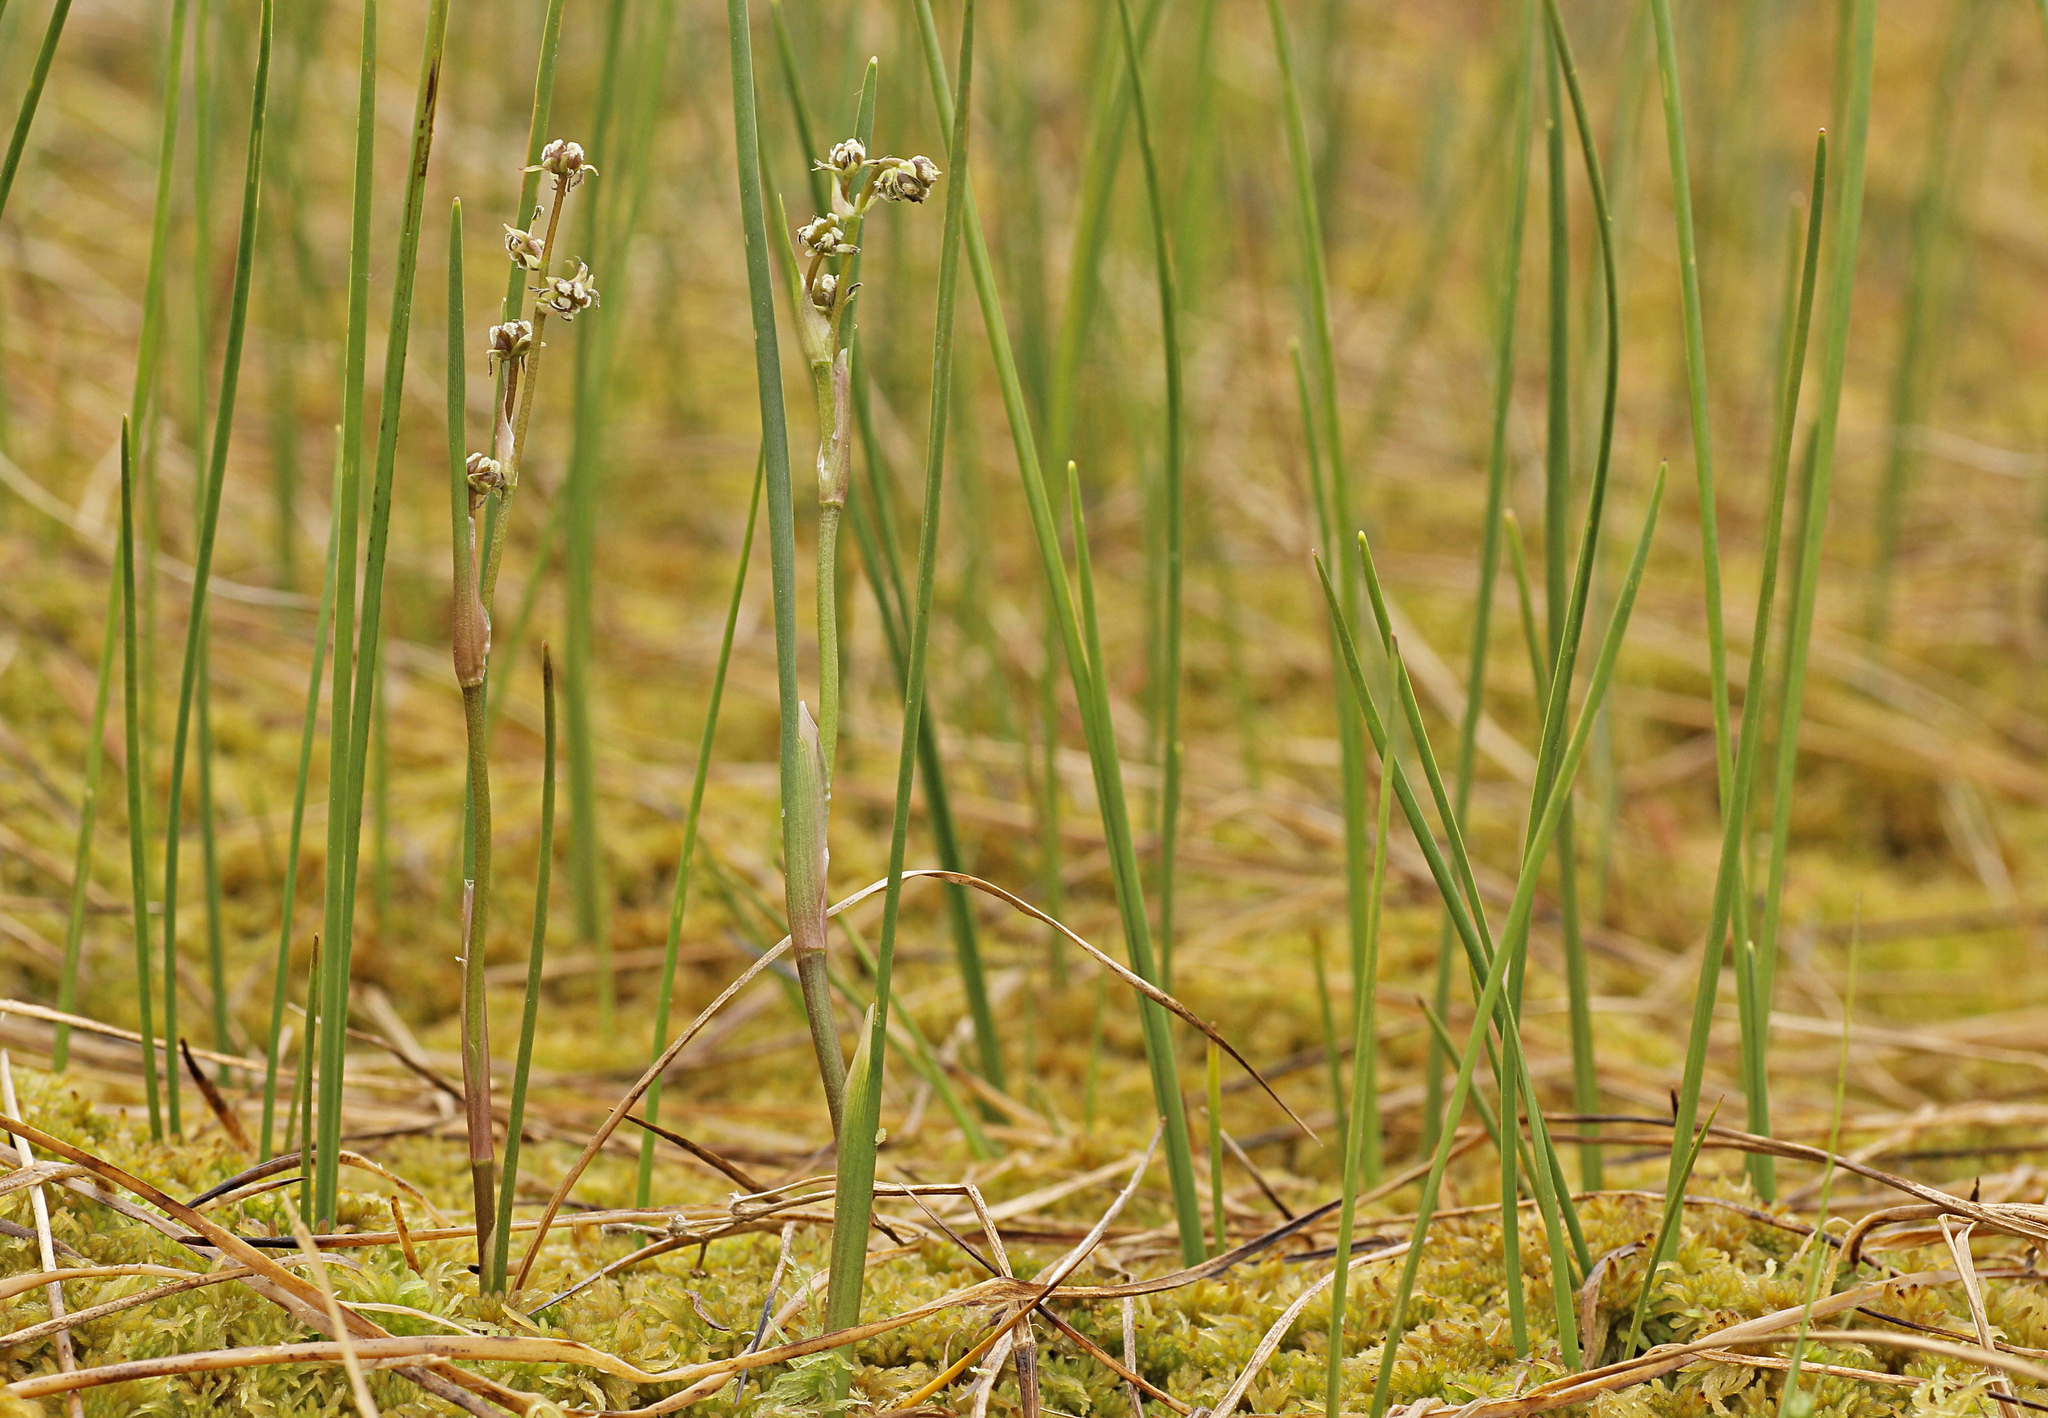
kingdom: Plantae
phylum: Tracheophyta
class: Liliopsida
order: Alismatales
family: Scheuchzeriaceae
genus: Scheuchzeria
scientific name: Scheuchzeria palustris
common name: Rannoch-rush
